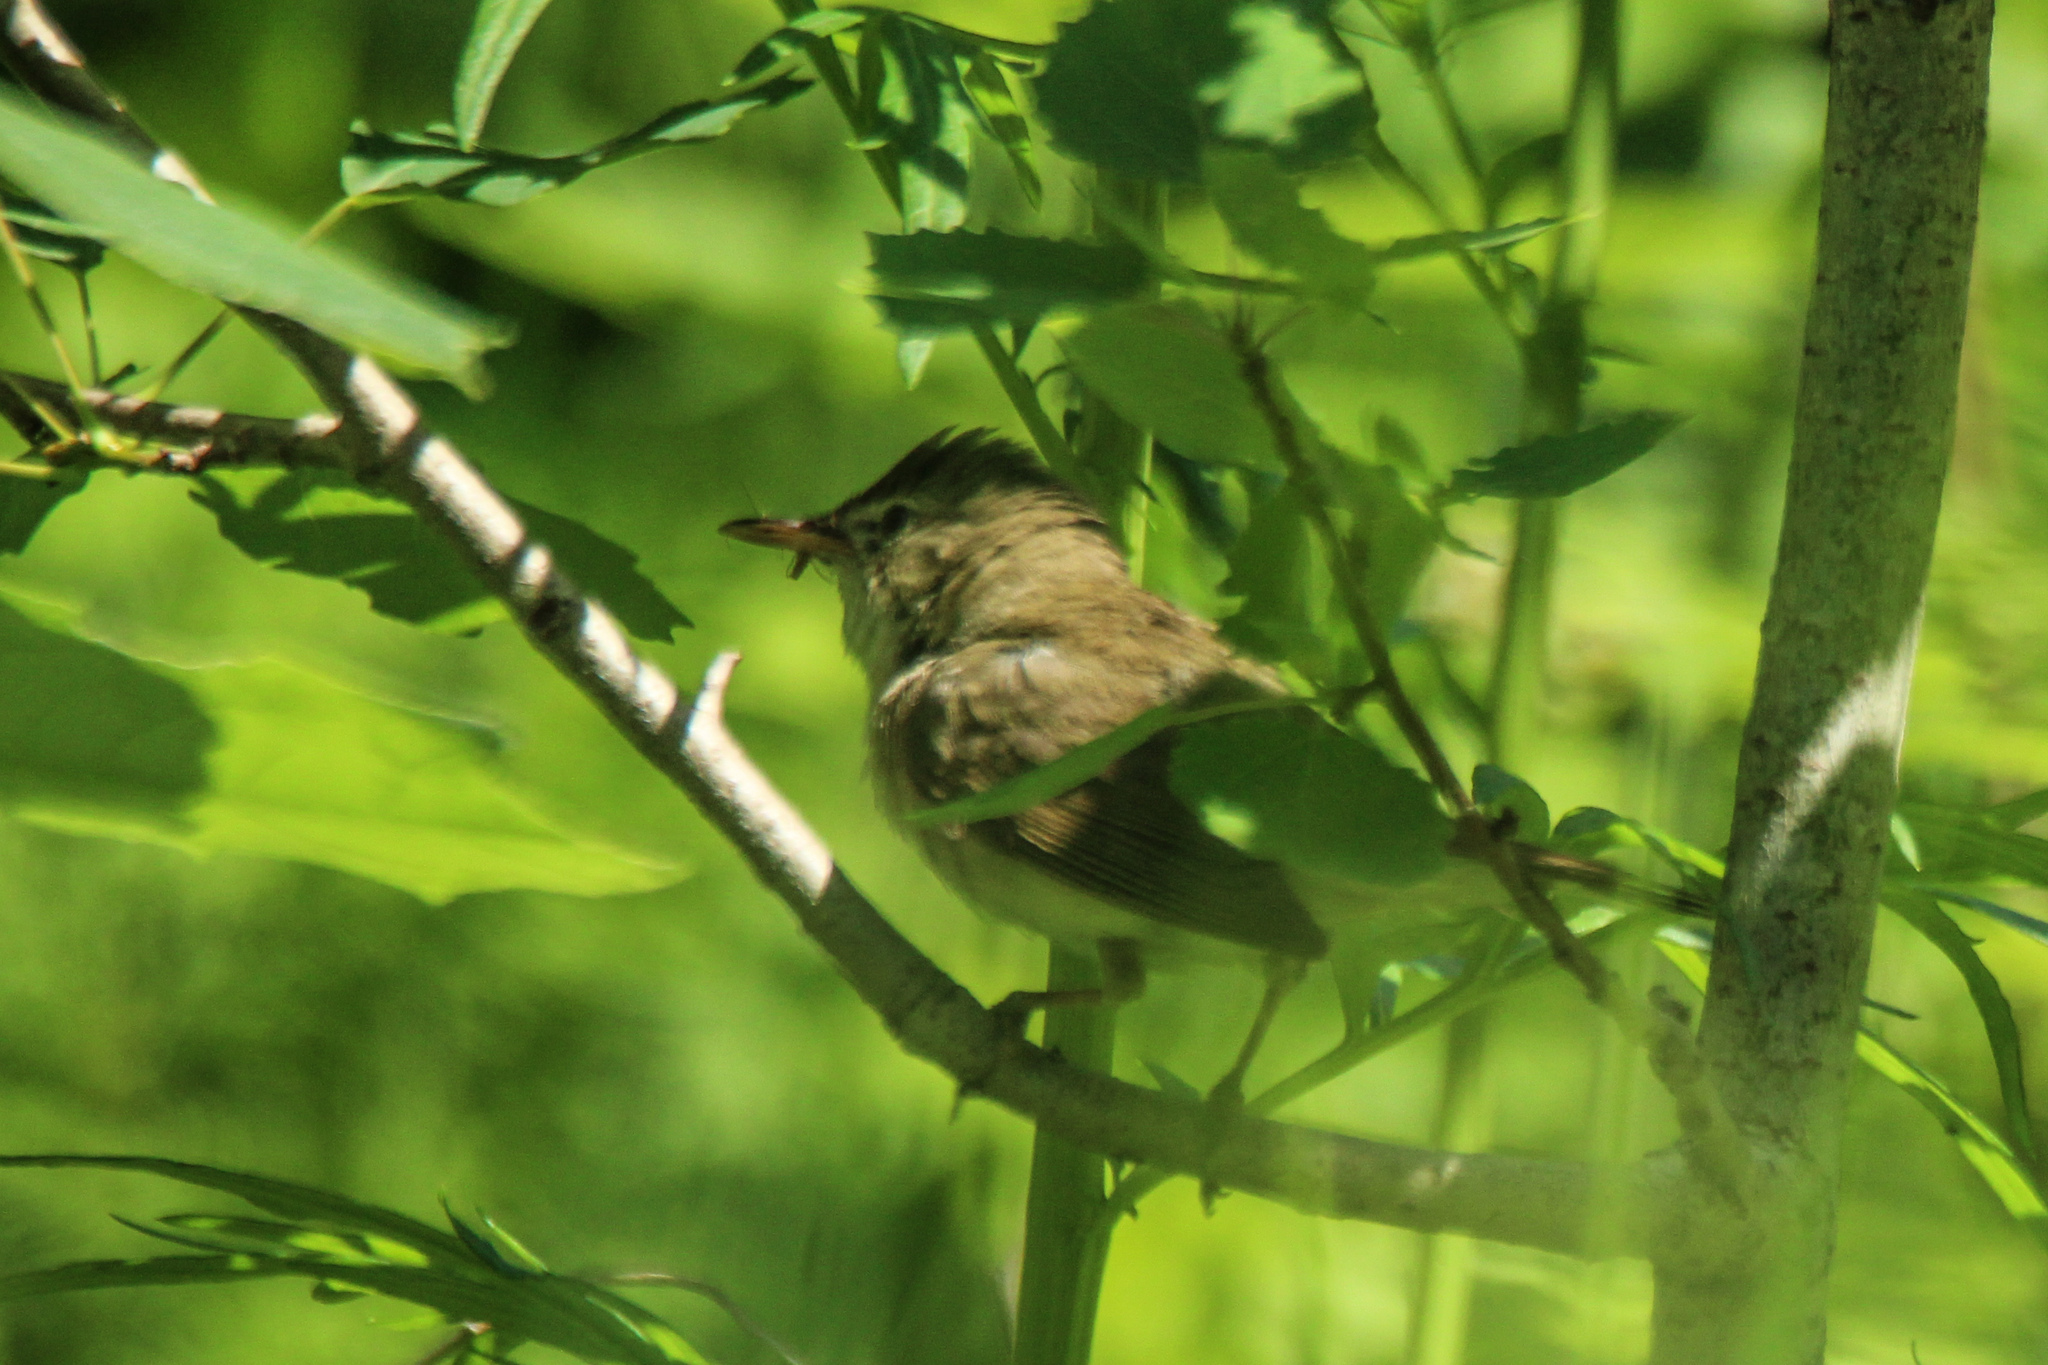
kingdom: Animalia
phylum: Chordata
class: Aves
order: Passeriformes
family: Acrocephalidae
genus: Acrocephalus
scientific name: Acrocephalus dumetorum
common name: Blyth's reed warbler
